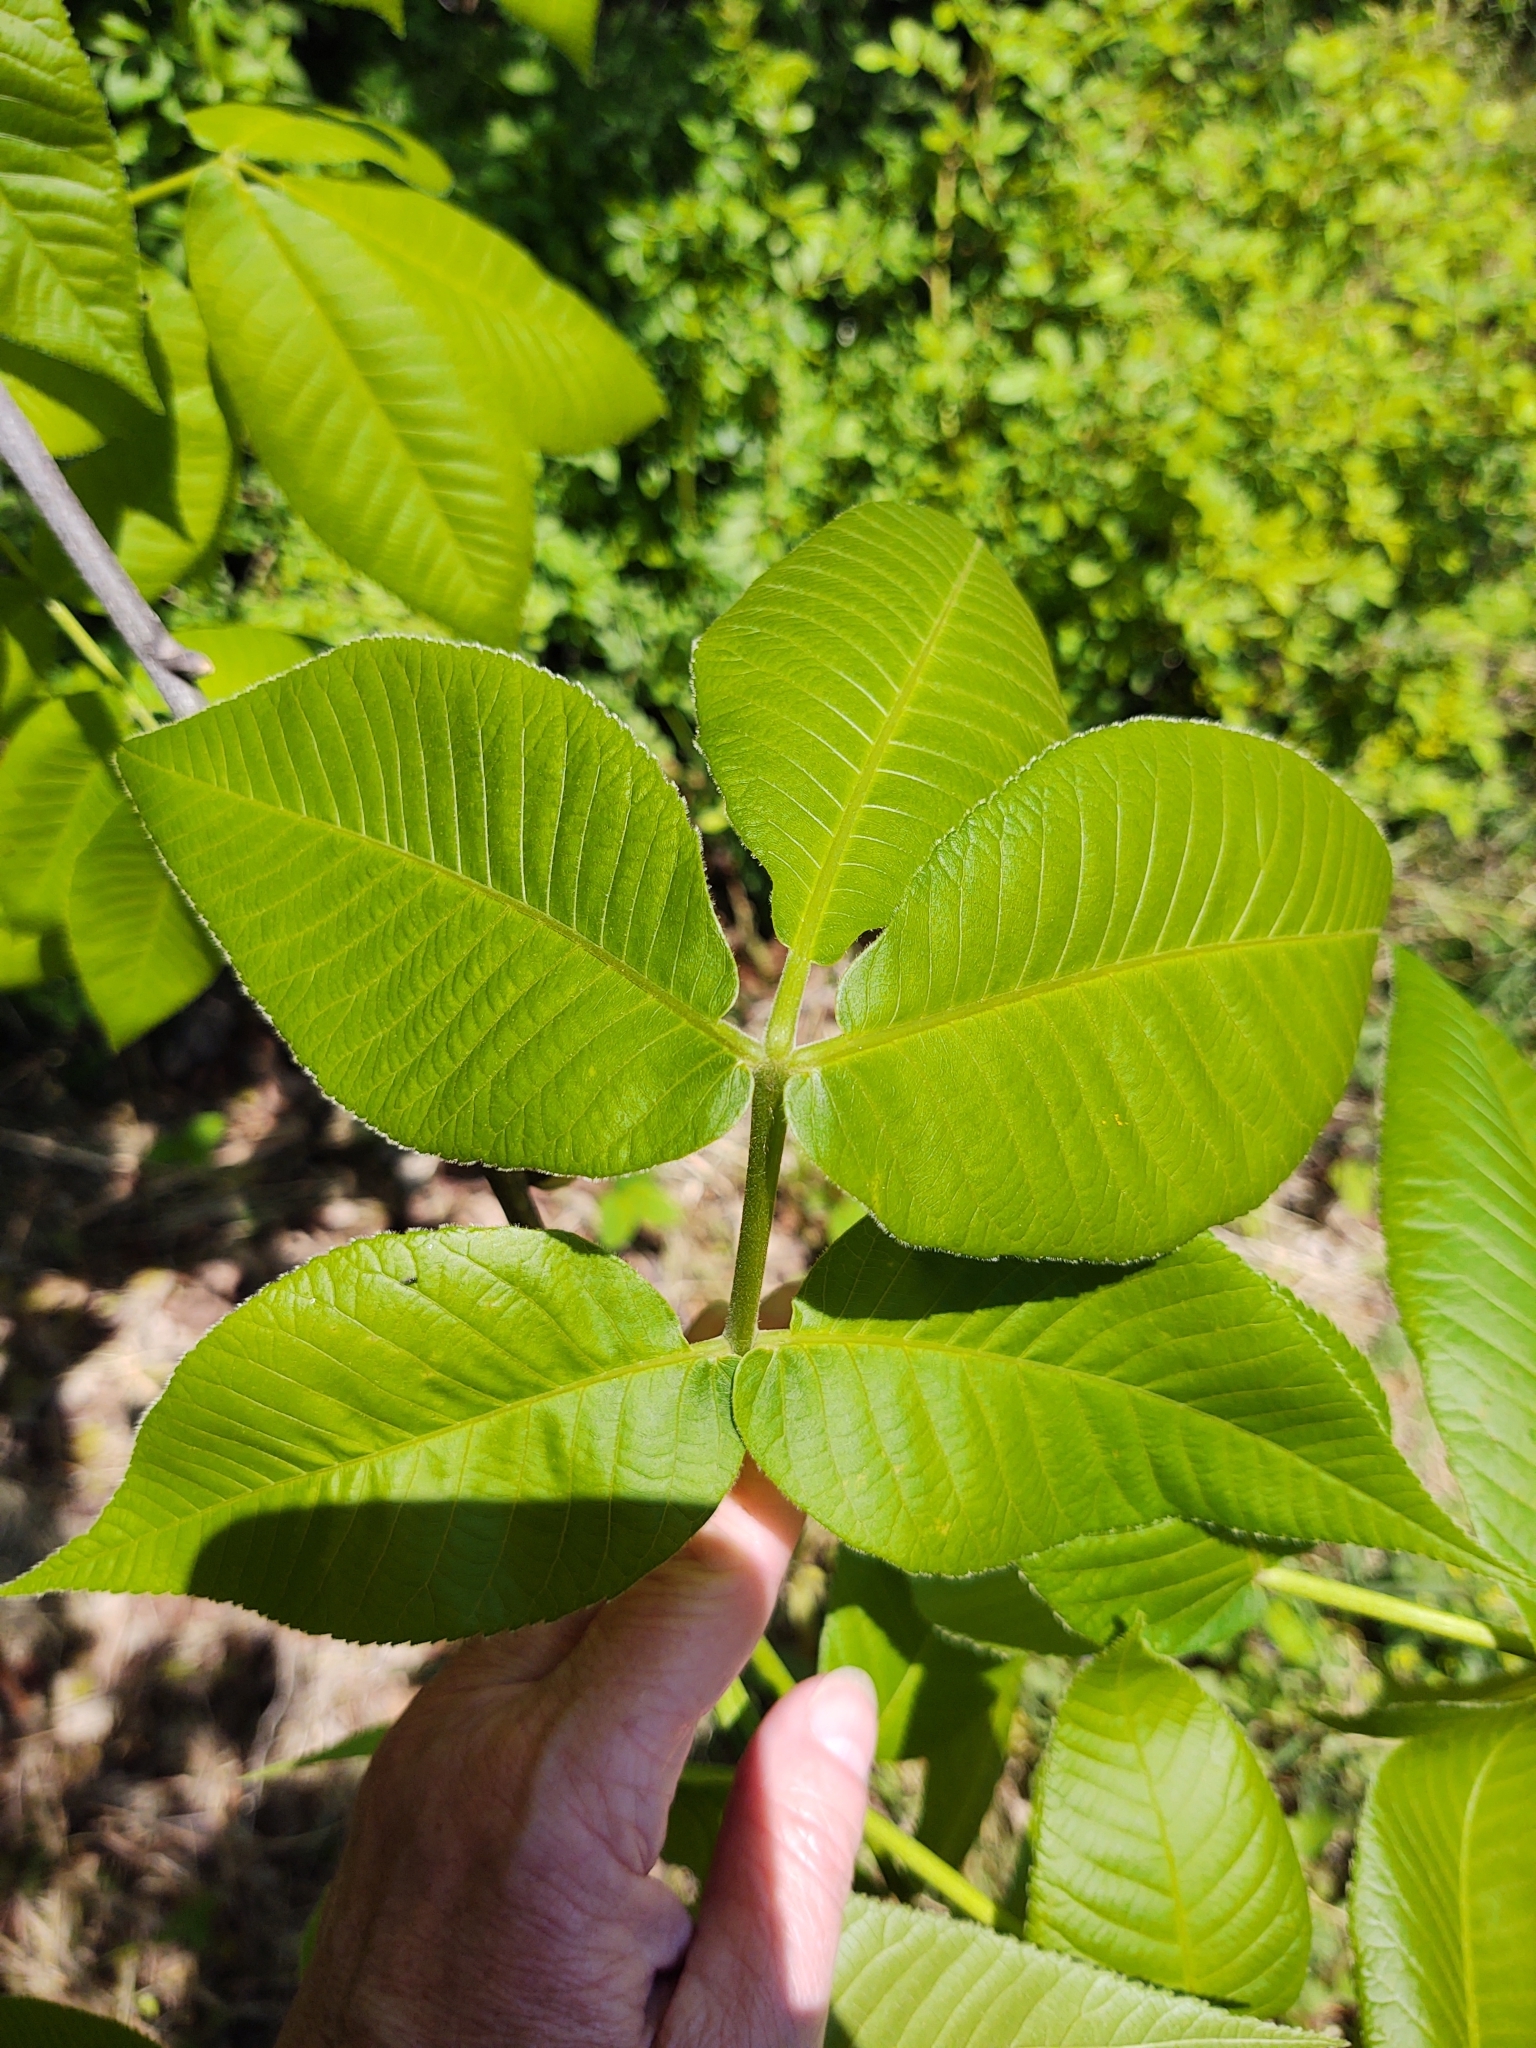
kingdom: Plantae
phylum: Tracheophyta
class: Magnoliopsida
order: Fagales
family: Juglandaceae
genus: Carya
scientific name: Carya glabra
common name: Pignut hickory
